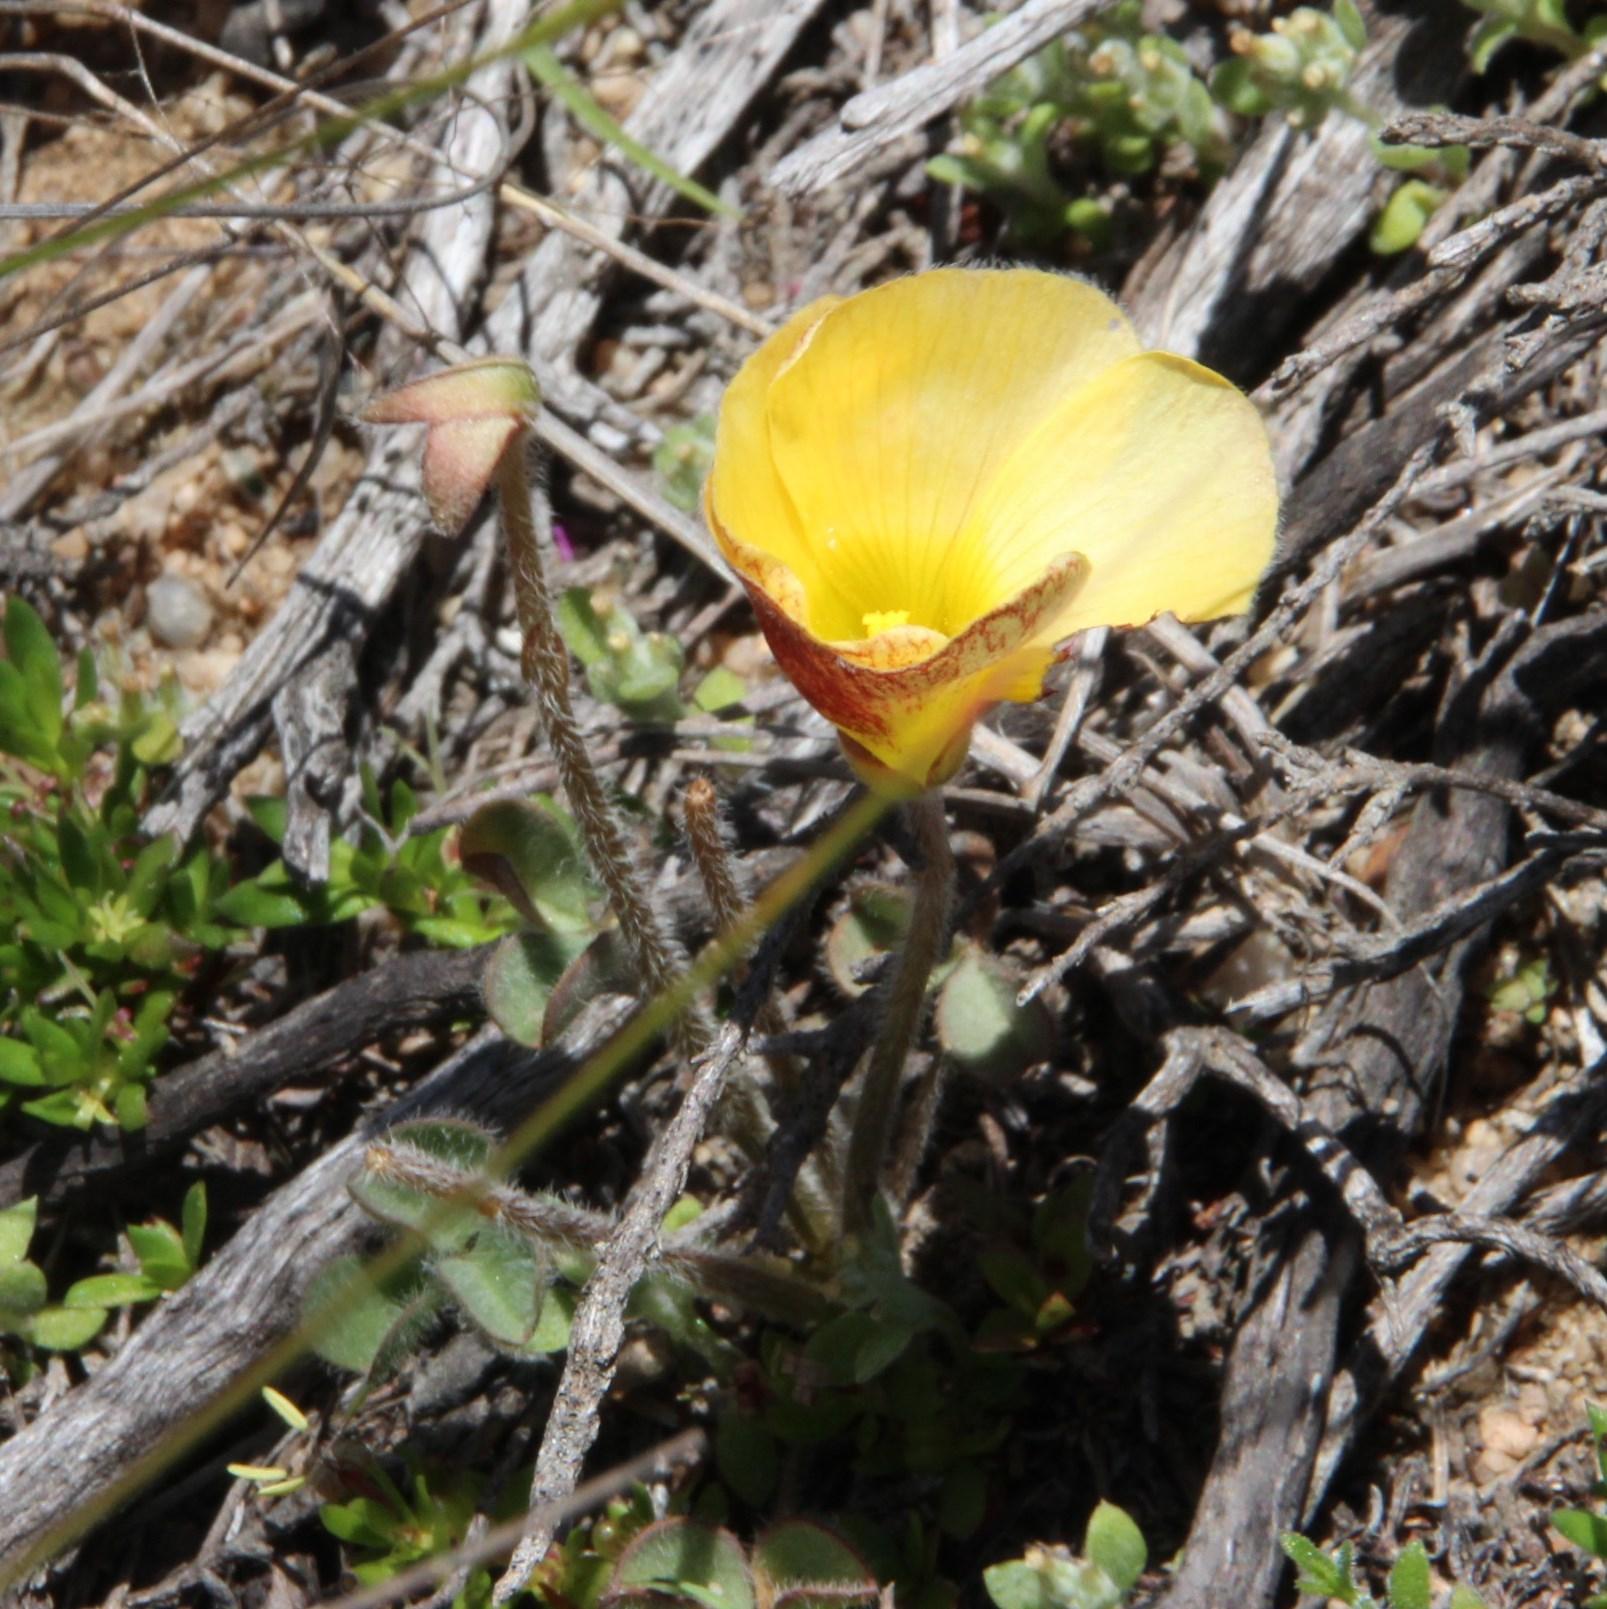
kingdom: Plantae
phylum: Tracheophyta
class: Magnoliopsida
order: Oxalidales
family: Oxalidaceae
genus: Oxalis
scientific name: Oxalis obtusa
